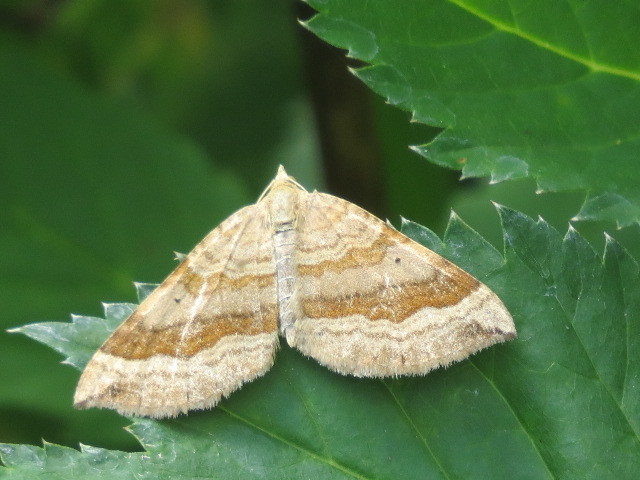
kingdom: Animalia
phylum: Arthropoda
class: Insecta
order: Lepidoptera
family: Geometridae
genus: Scotopteryx
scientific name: Scotopteryx chenopodiata
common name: Shaded broad-bar
